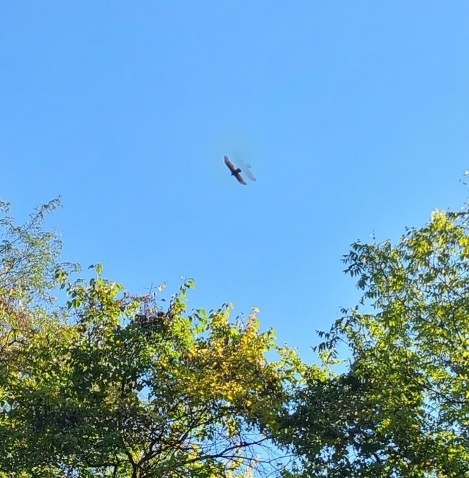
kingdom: Animalia
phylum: Chordata
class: Aves
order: Accipitriformes
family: Cathartidae
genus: Cathartes
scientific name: Cathartes aura
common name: Turkey vulture
